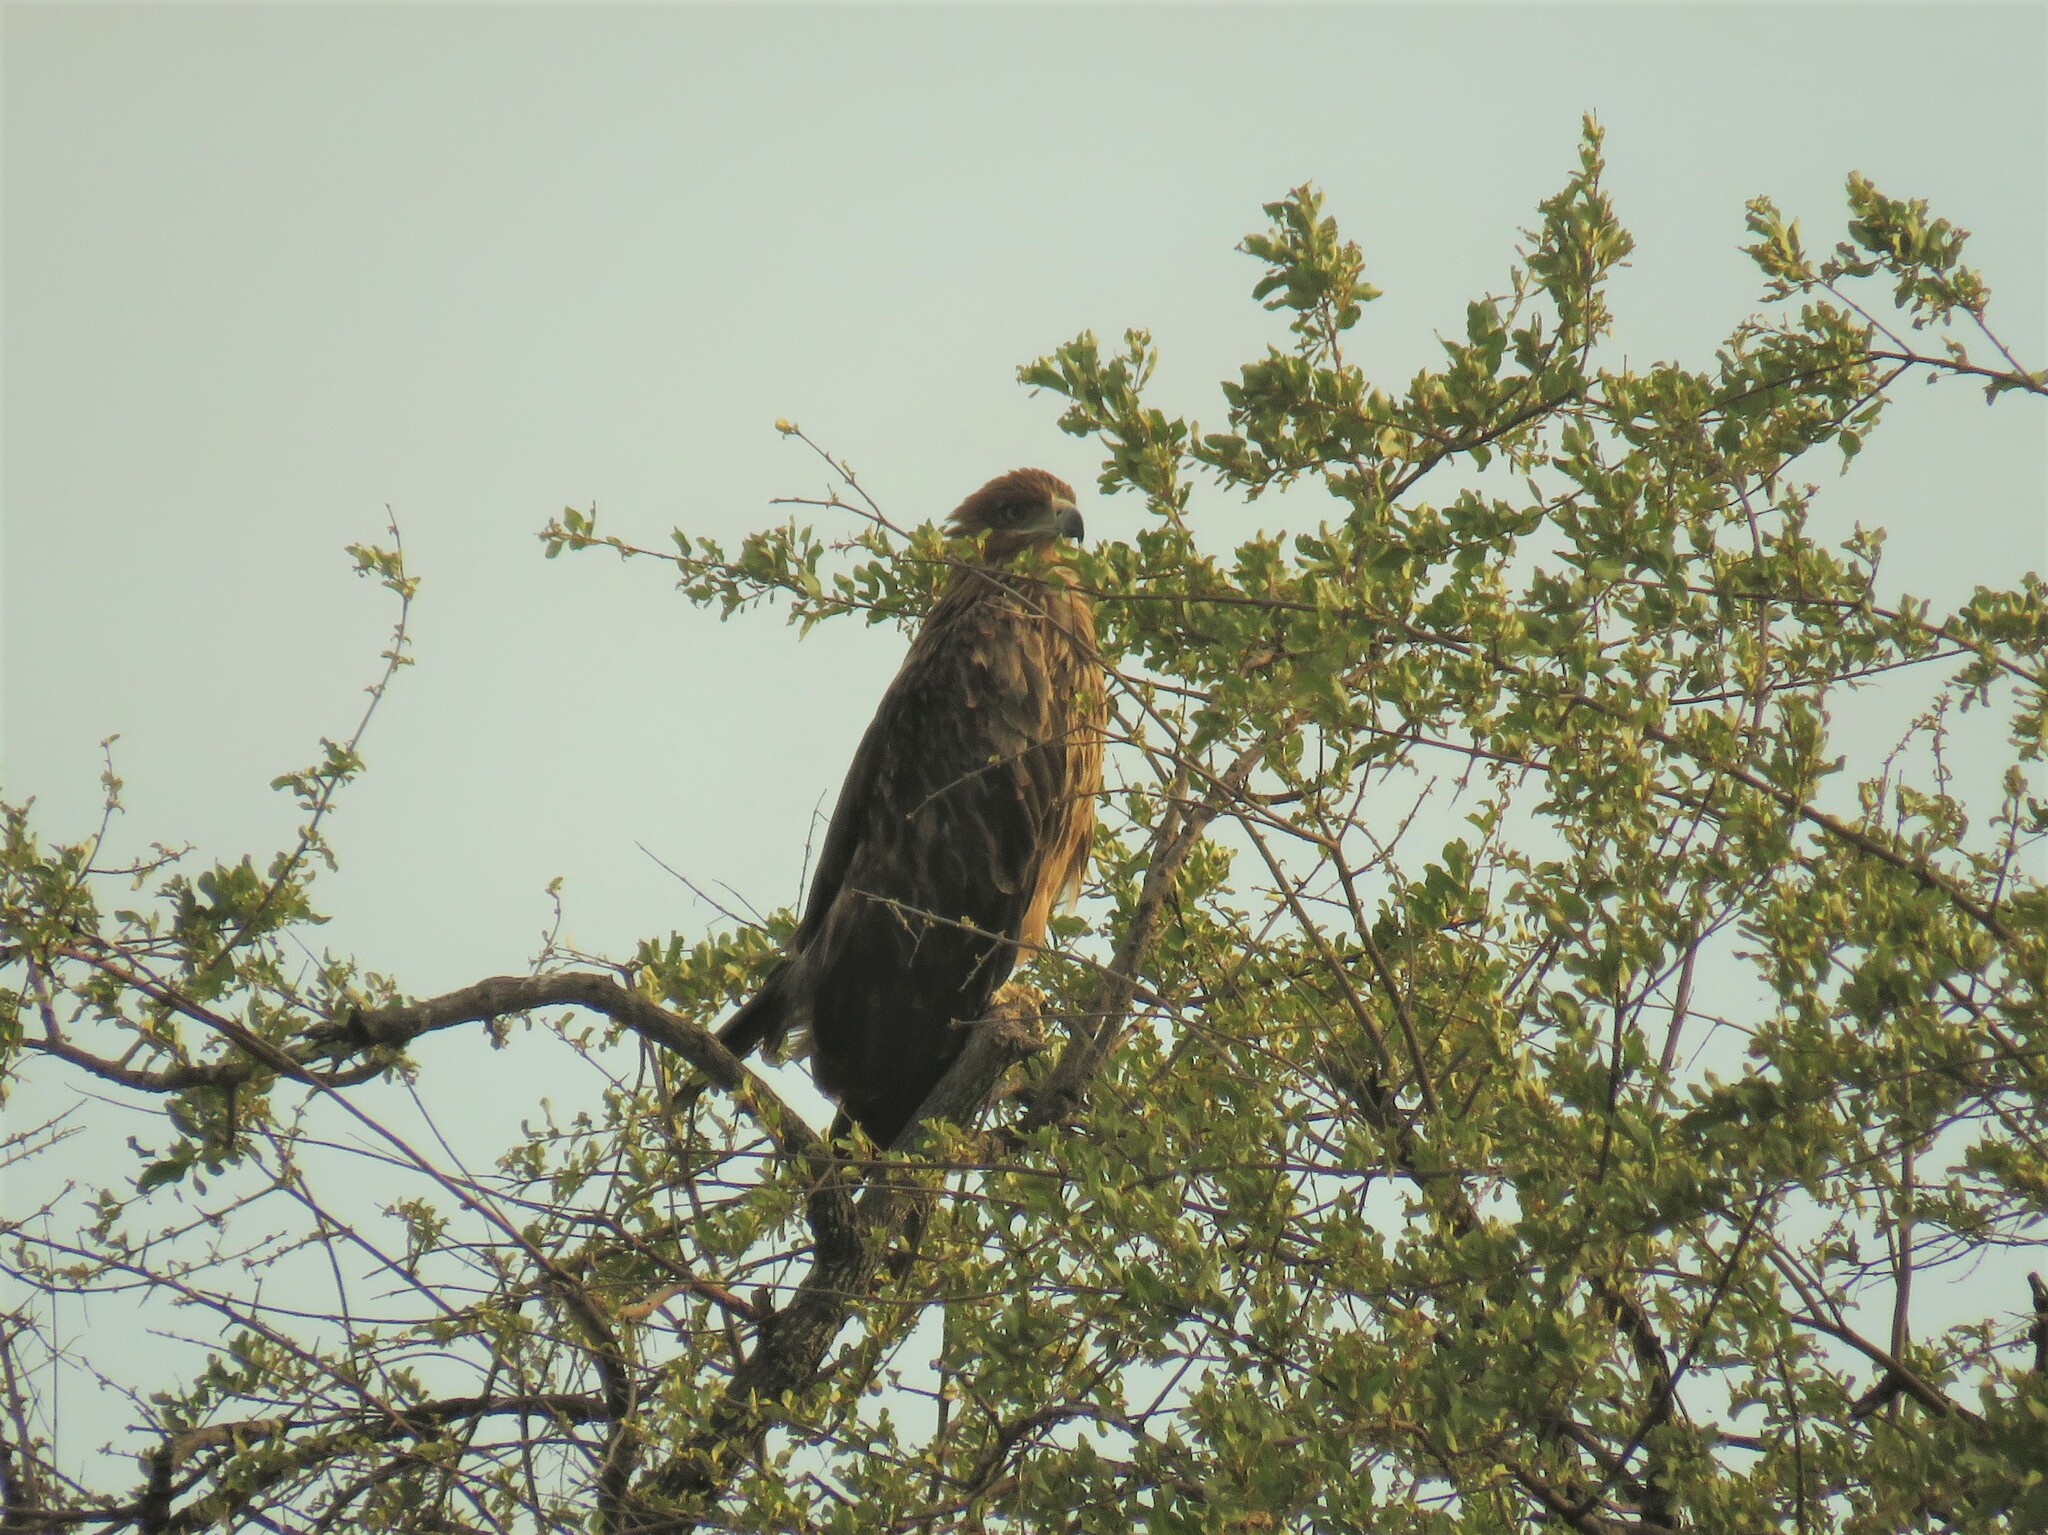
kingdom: Animalia
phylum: Chordata
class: Aves
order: Accipitriformes
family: Accipitridae
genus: Aquila
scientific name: Aquila rapax
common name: Tawny eagle
